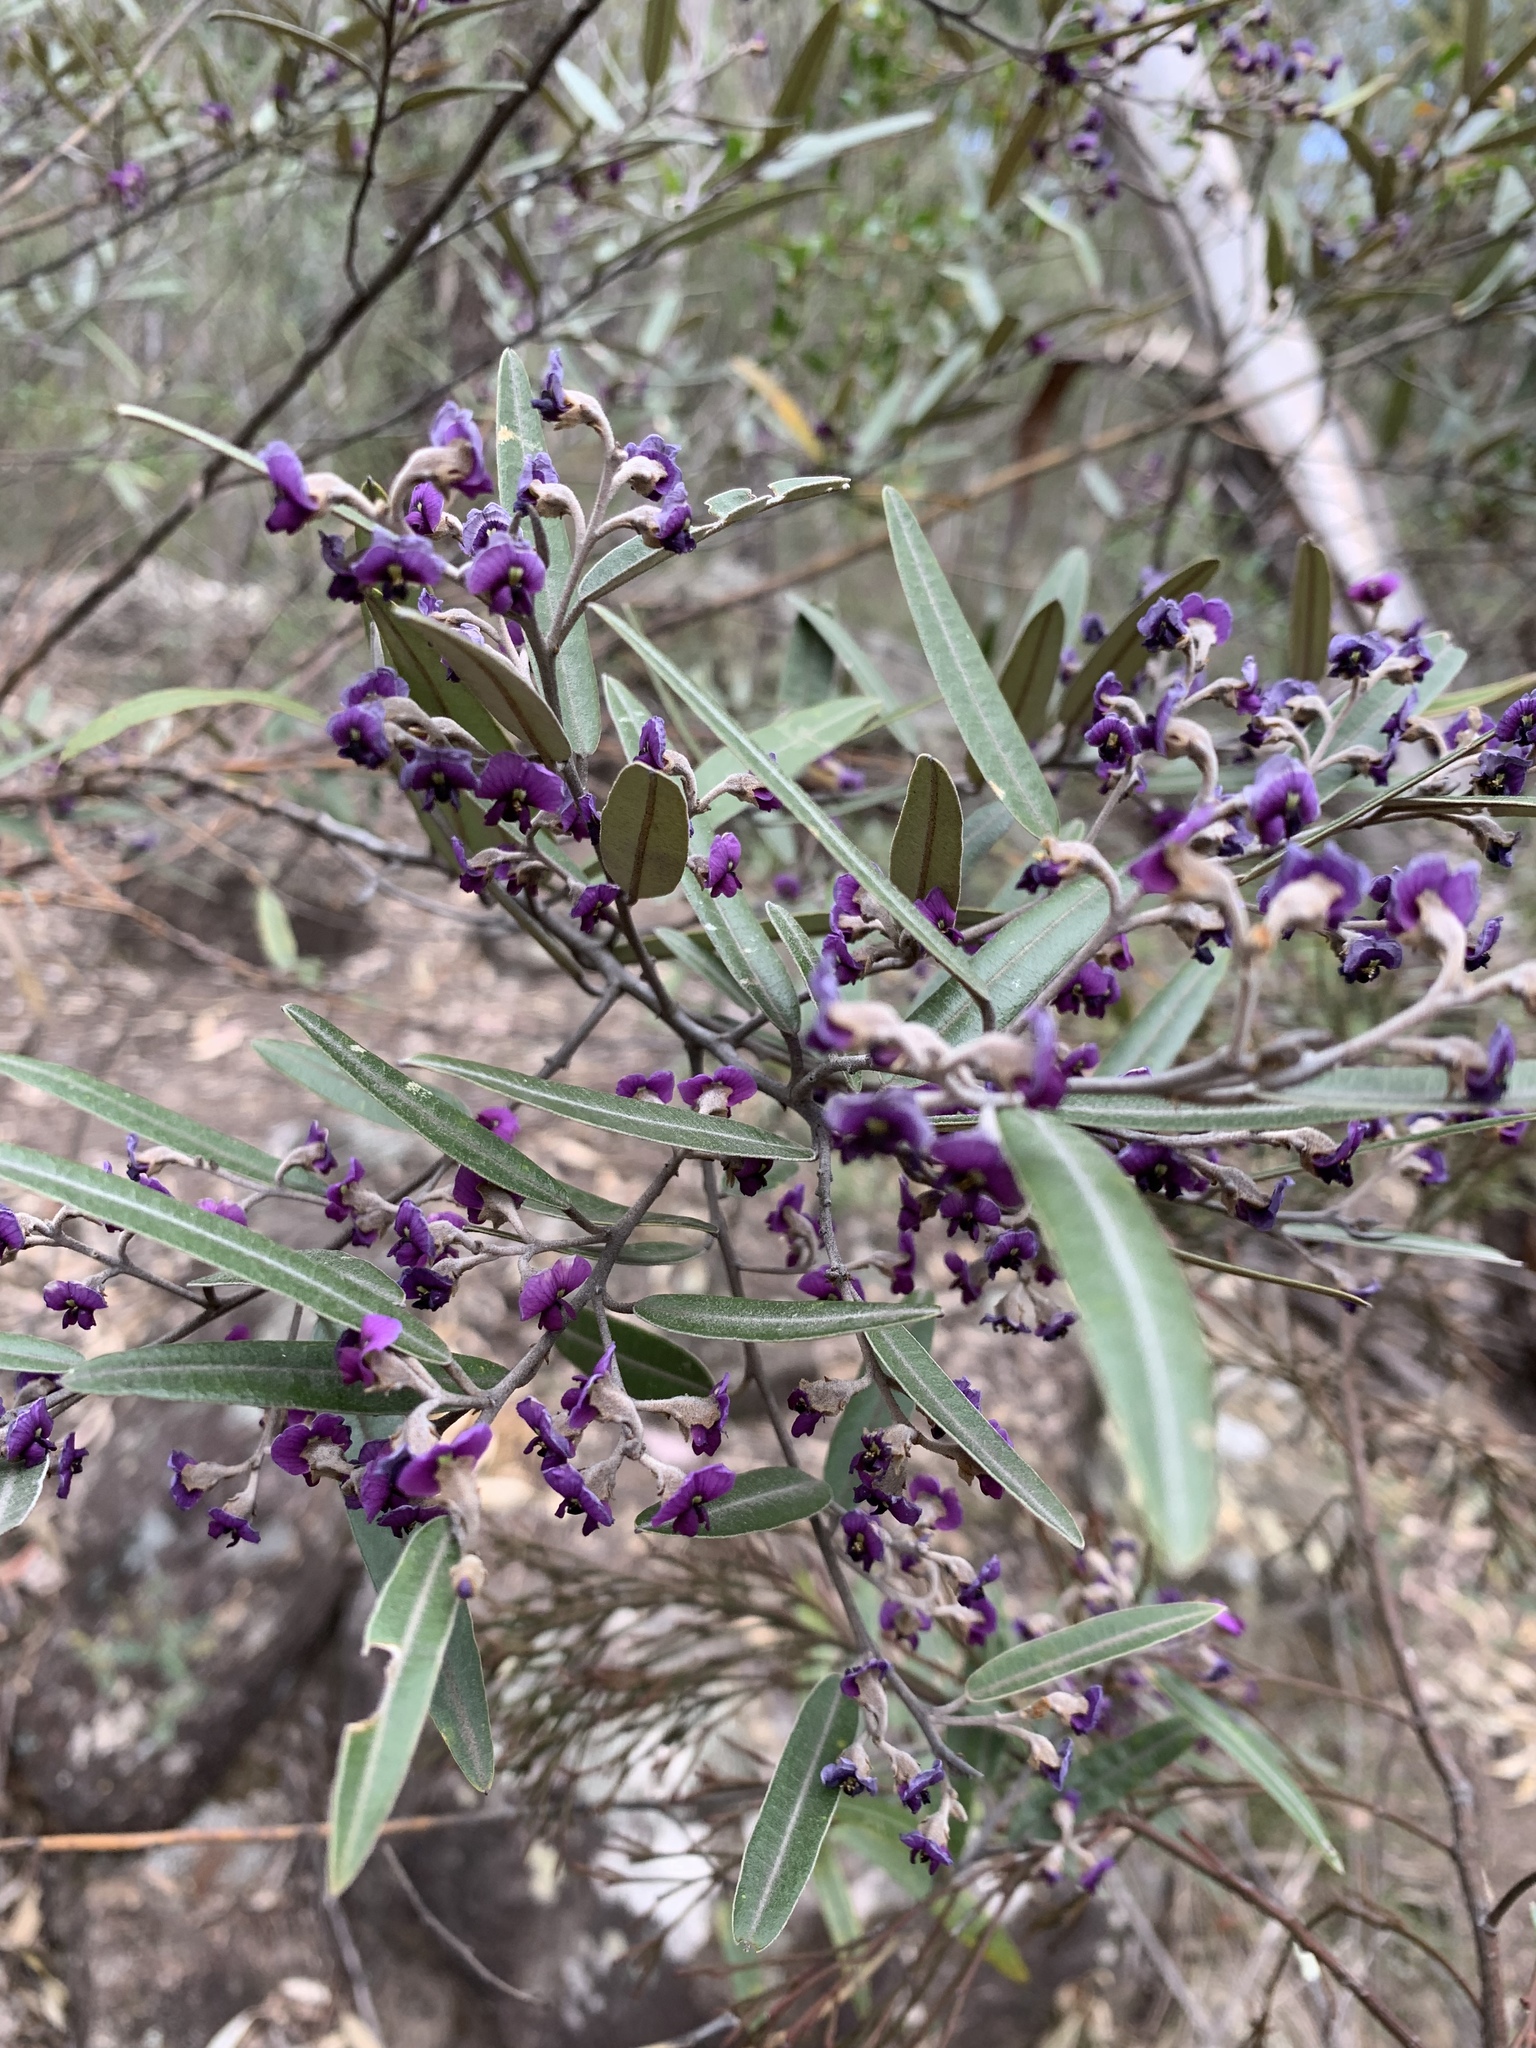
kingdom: Plantae
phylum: Tracheophyta
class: Magnoliopsida
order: Fabales
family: Fabaceae
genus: Hovea
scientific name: Hovea apiculata
